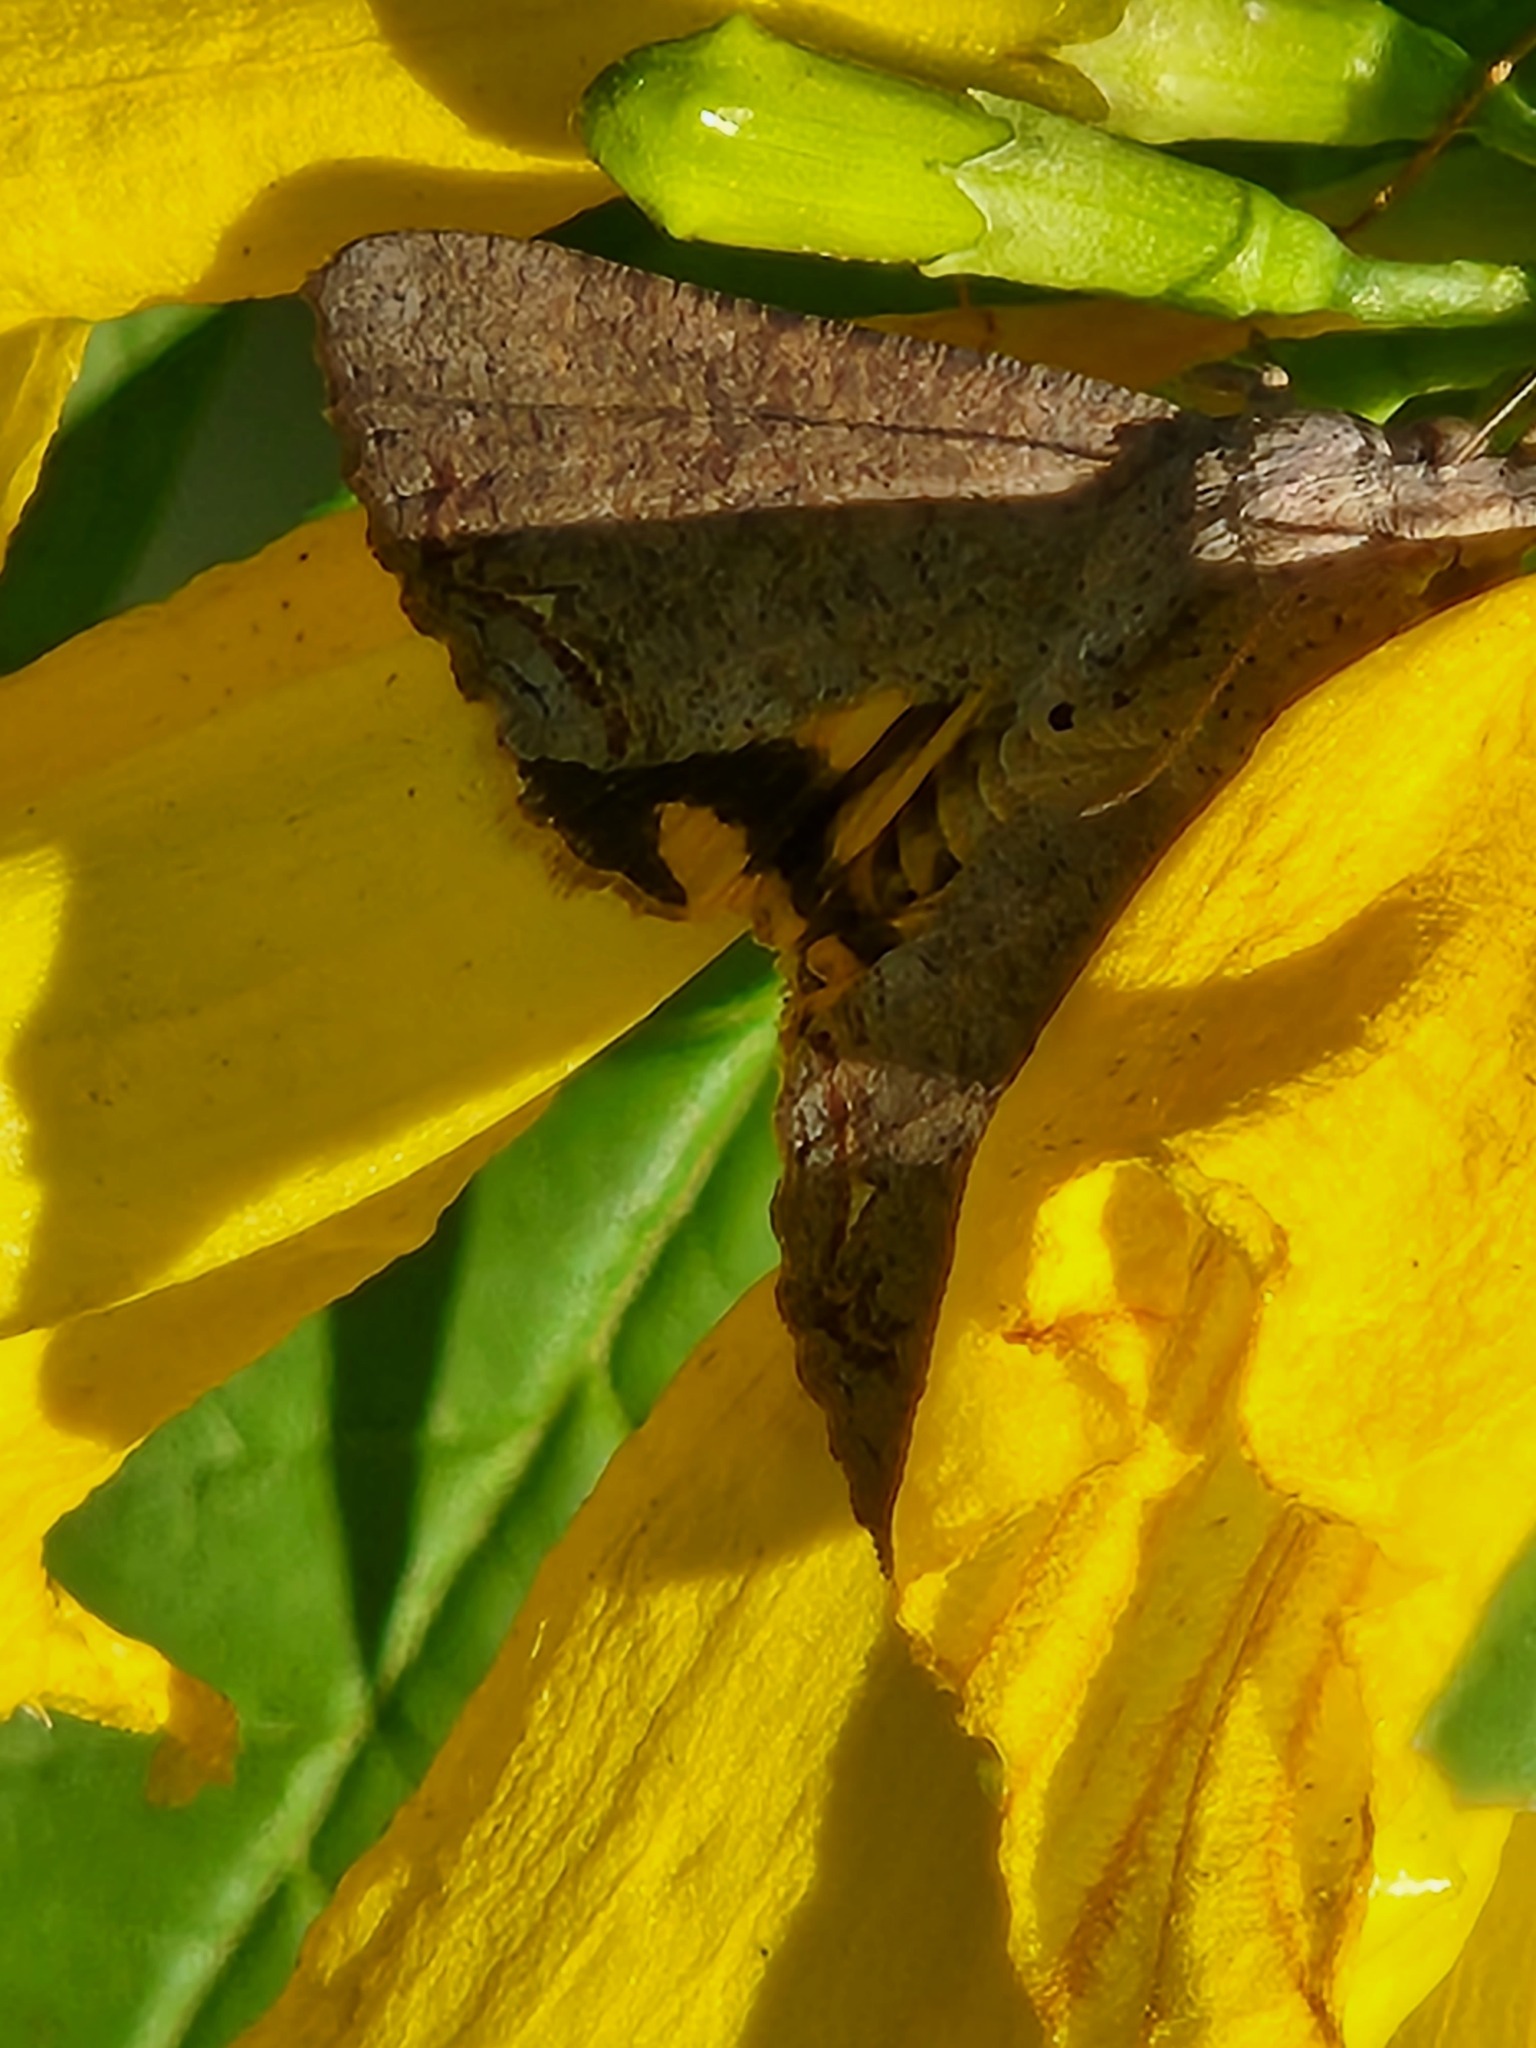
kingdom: Animalia
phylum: Arthropoda
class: Insecta
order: Lepidoptera
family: Erebidae
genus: Hypocala
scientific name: Hypocala andremona
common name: Hypocala moth
